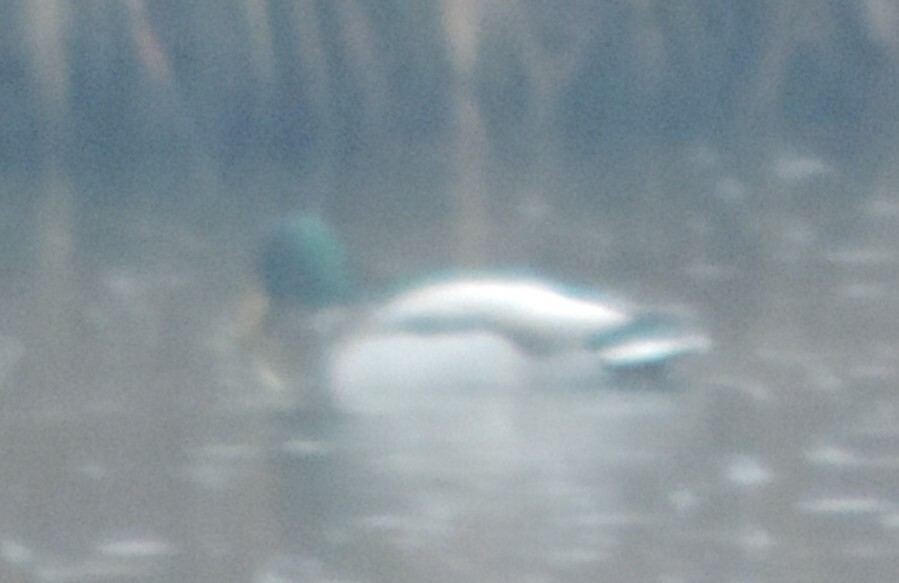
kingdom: Animalia
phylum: Chordata
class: Aves
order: Anseriformes
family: Anatidae
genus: Anas
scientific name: Anas platyrhynchos
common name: Mallard
